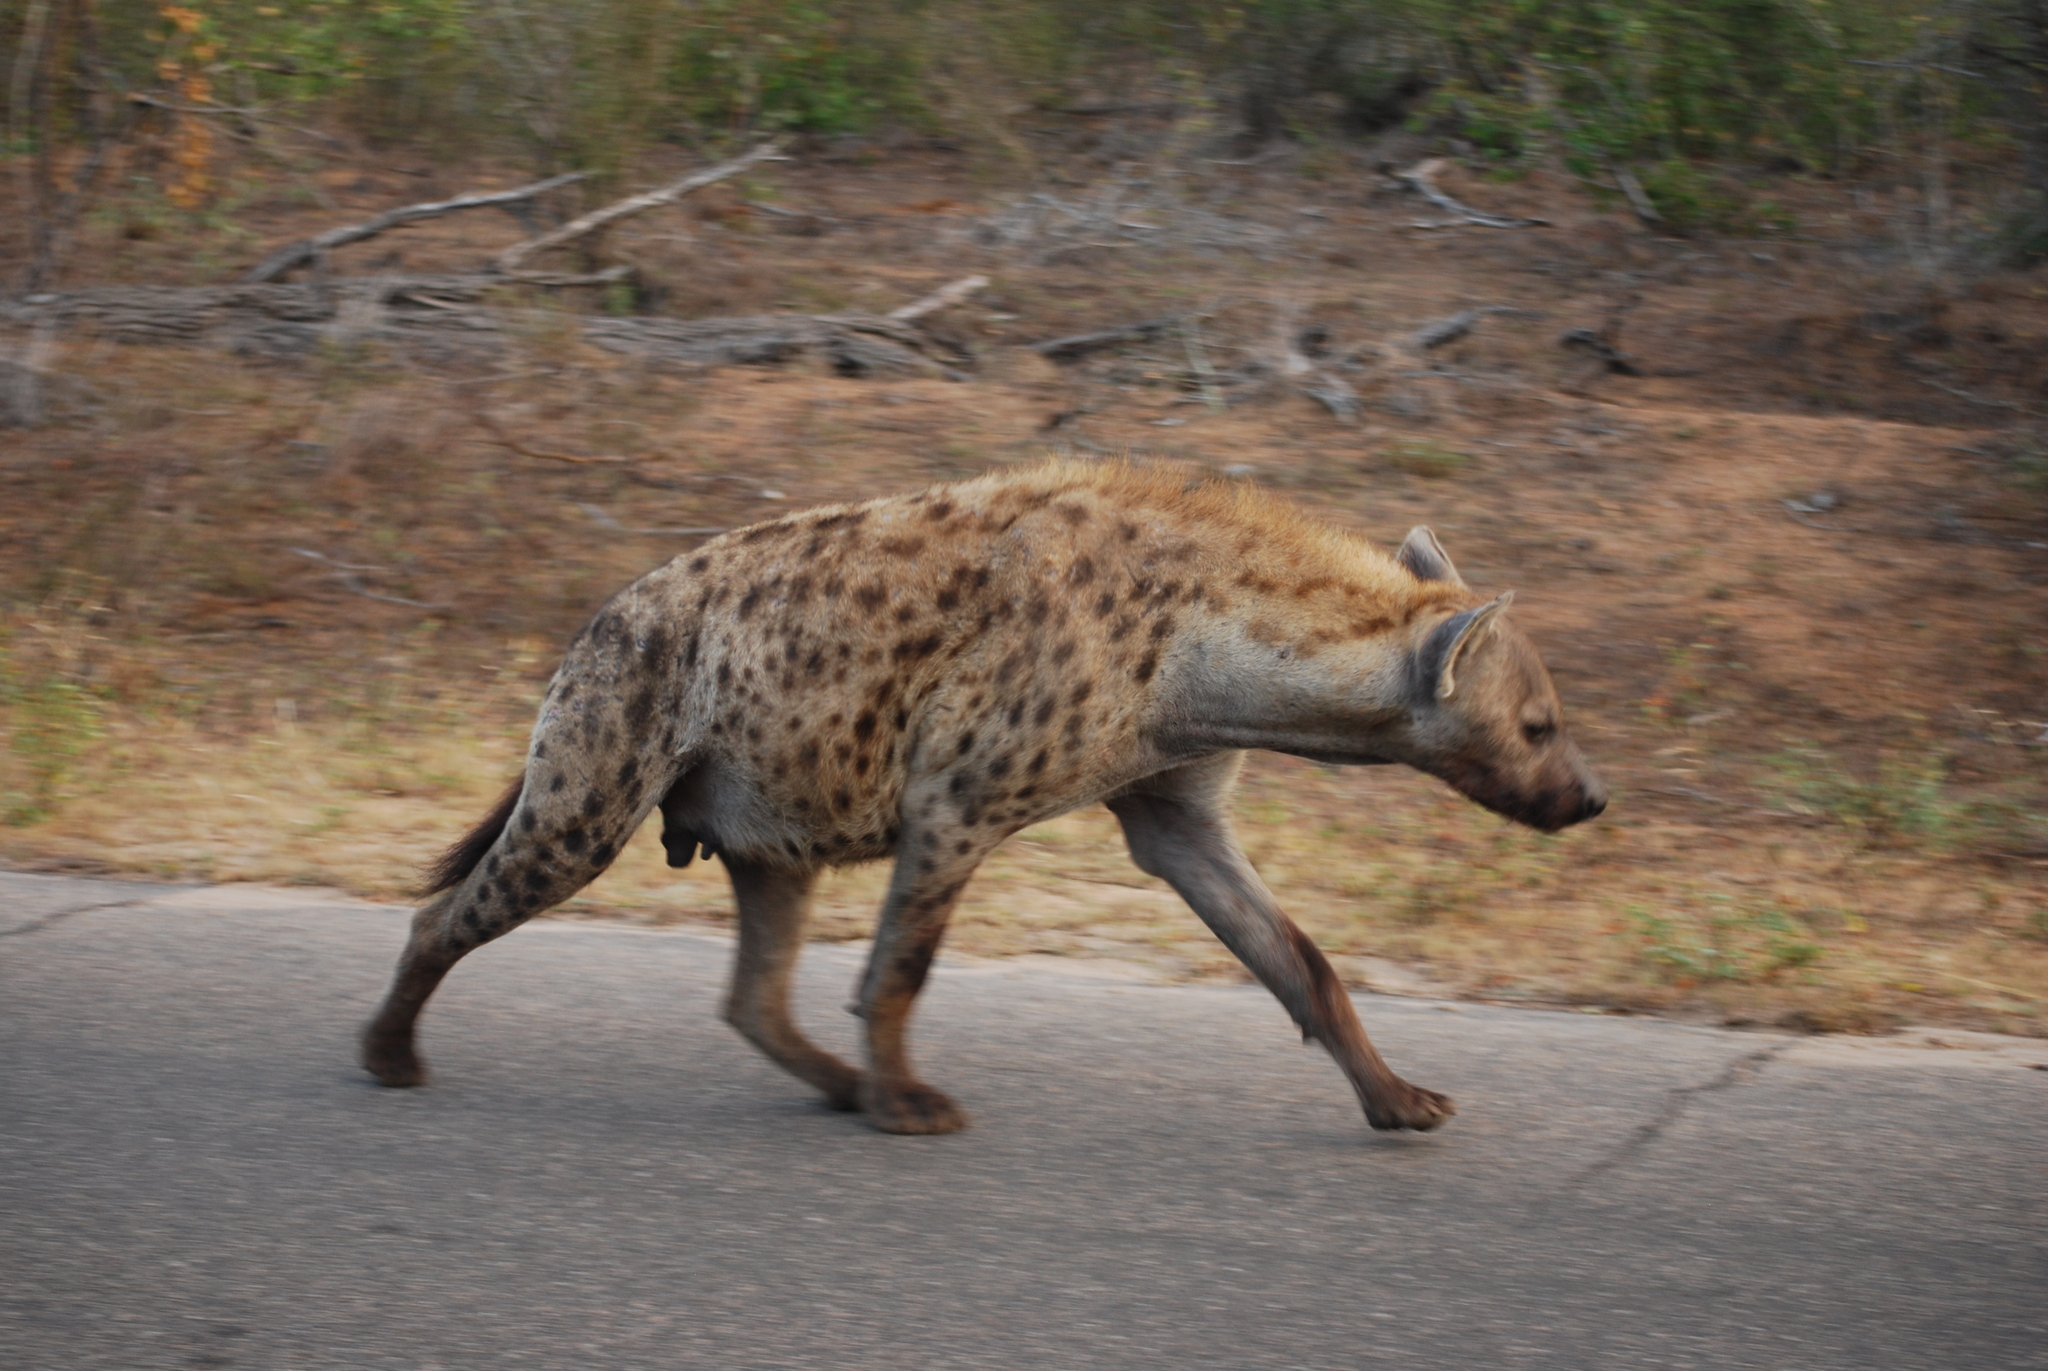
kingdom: Animalia
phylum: Chordata
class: Mammalia
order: Carnivora
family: Hyaenidae
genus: Crocuta
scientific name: Crocuta crocuta
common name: Spotted hyaena
